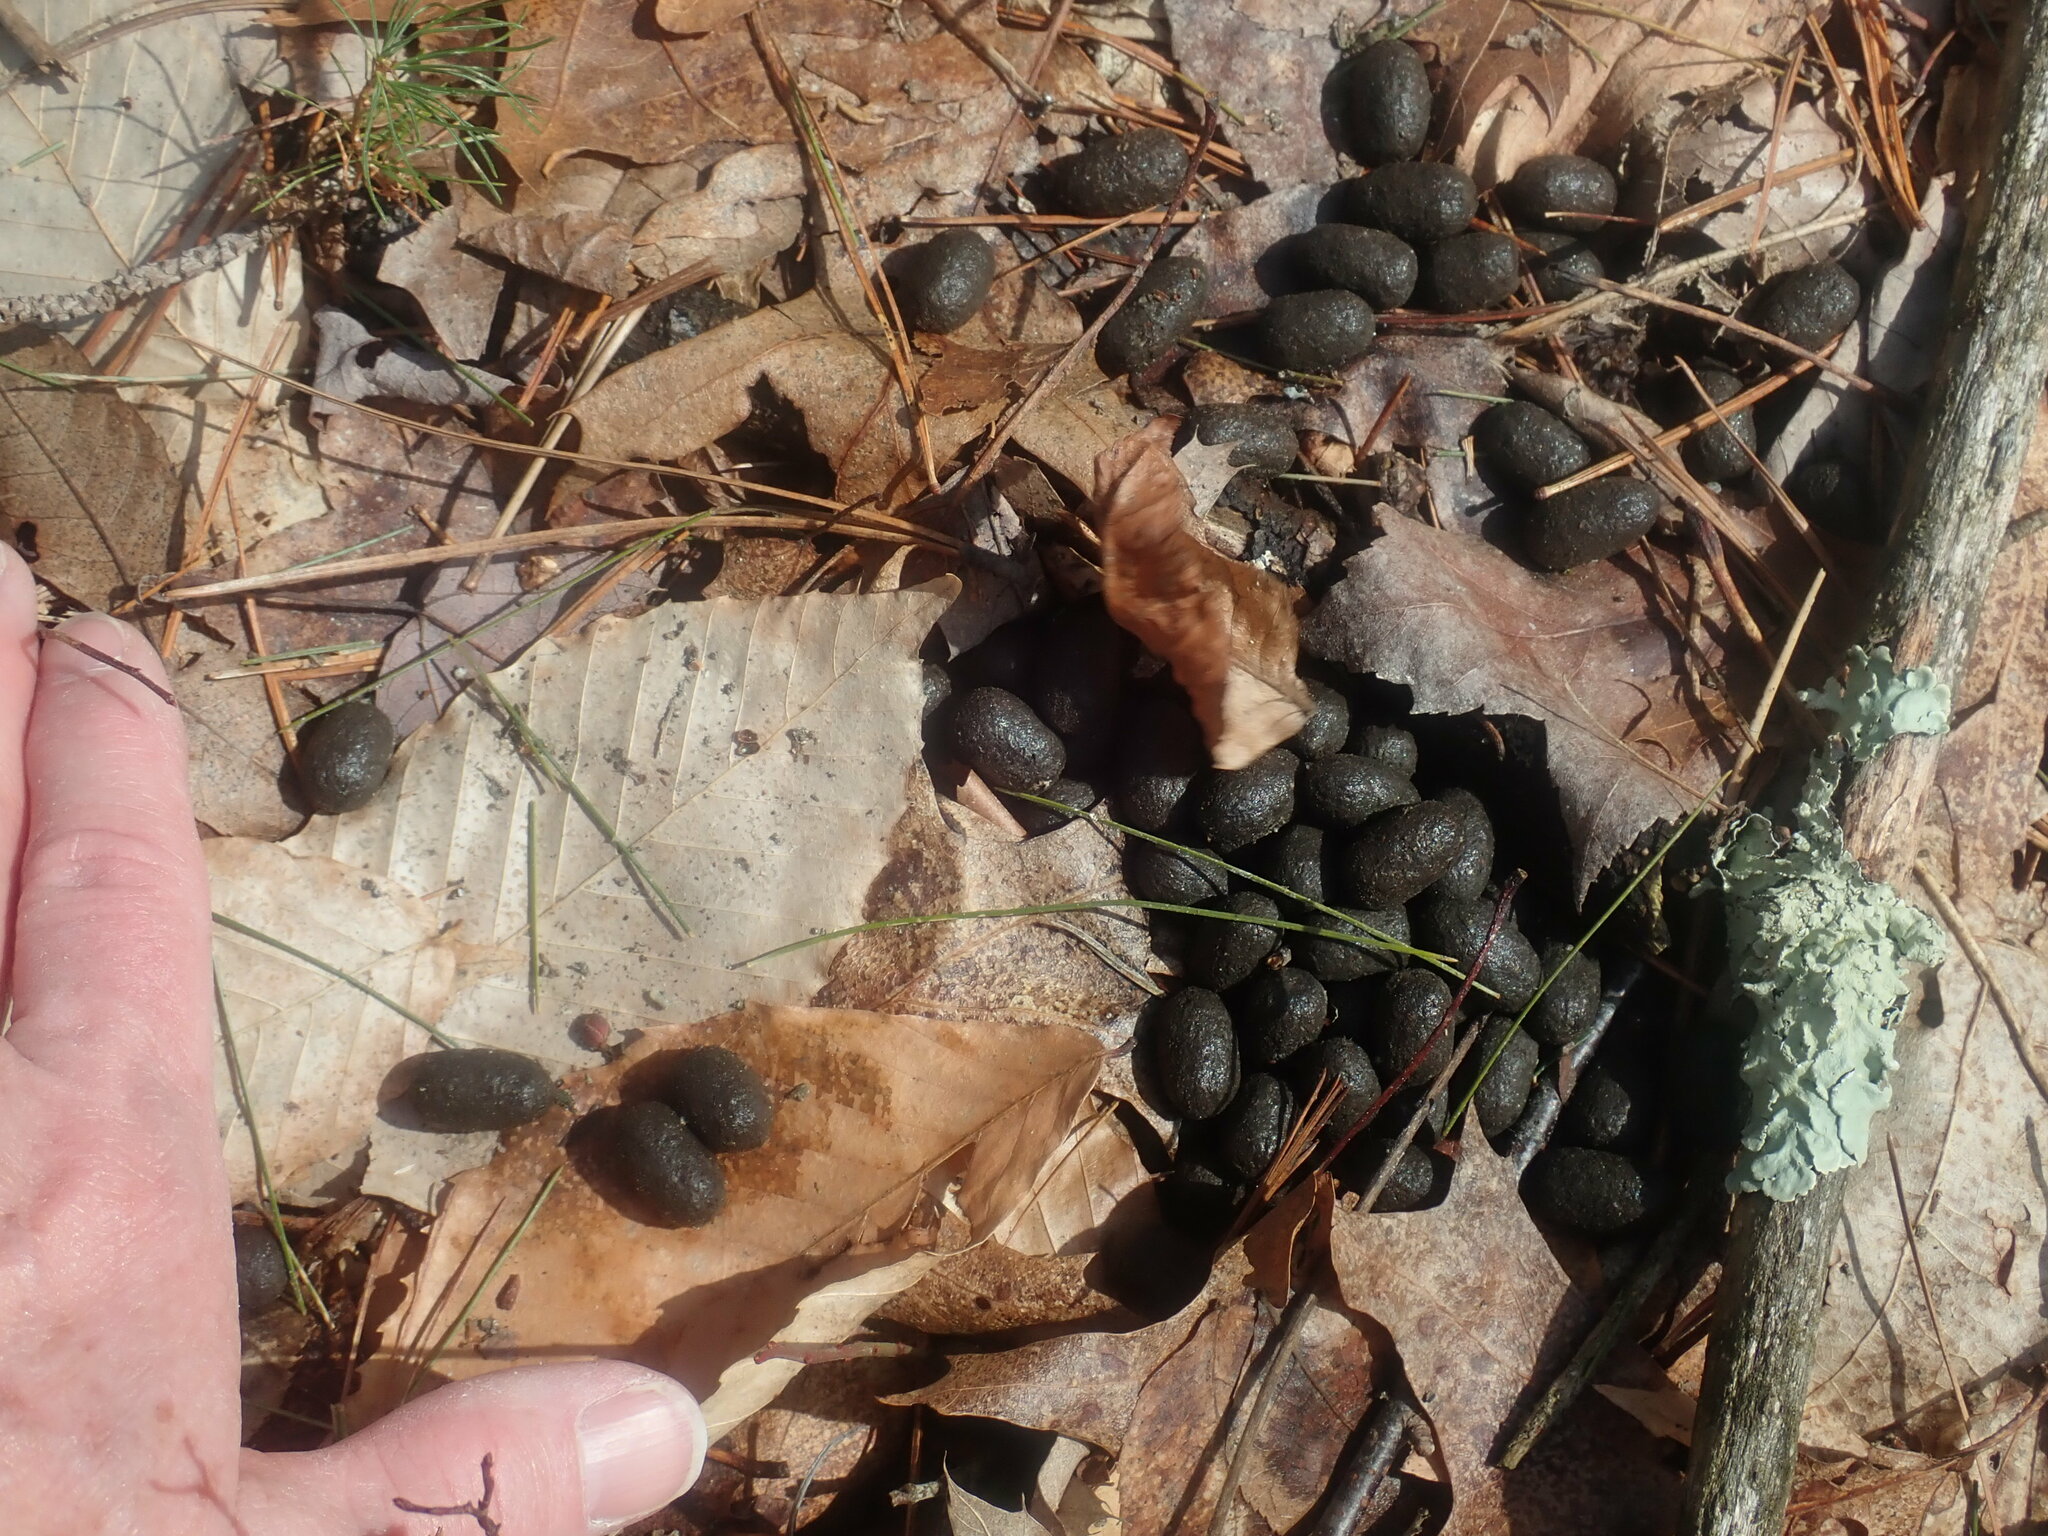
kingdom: Animalia
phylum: Chordata
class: Mammalia
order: Artiodactyla
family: Cervidae
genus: Odocoileus
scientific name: Odocoileus virginianus
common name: White-tailed deer
